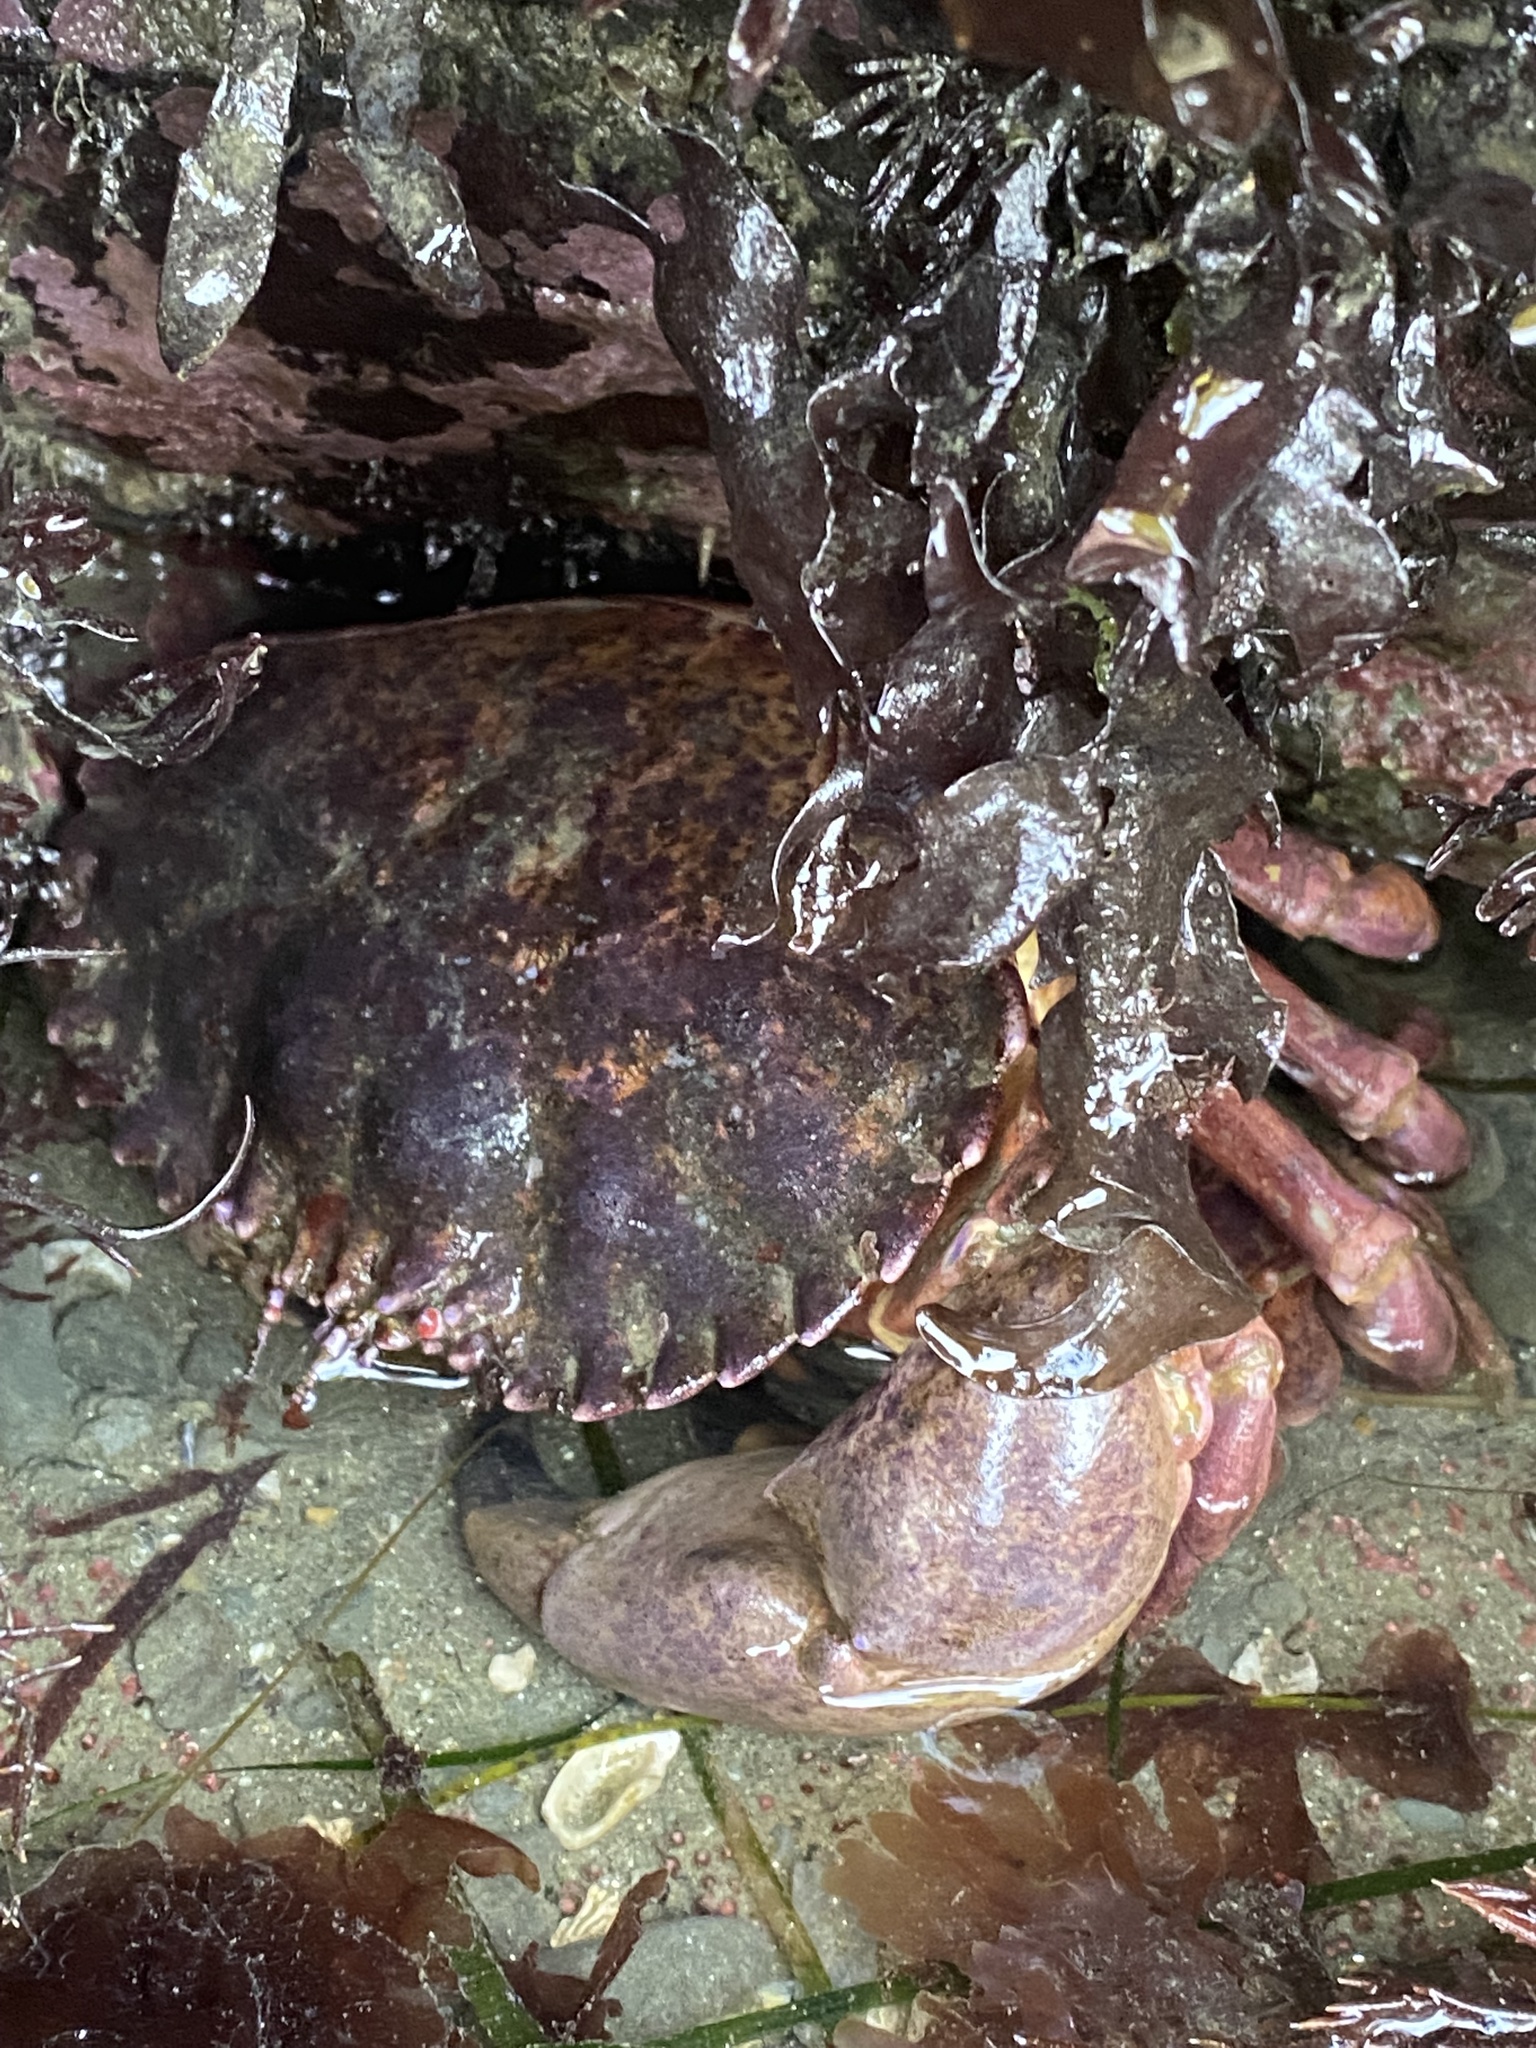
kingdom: Animalia
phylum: Arthropoda
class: Malacostraca
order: Decapoda
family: Cancridae
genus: Romaleon
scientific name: Romaleon antennarium
